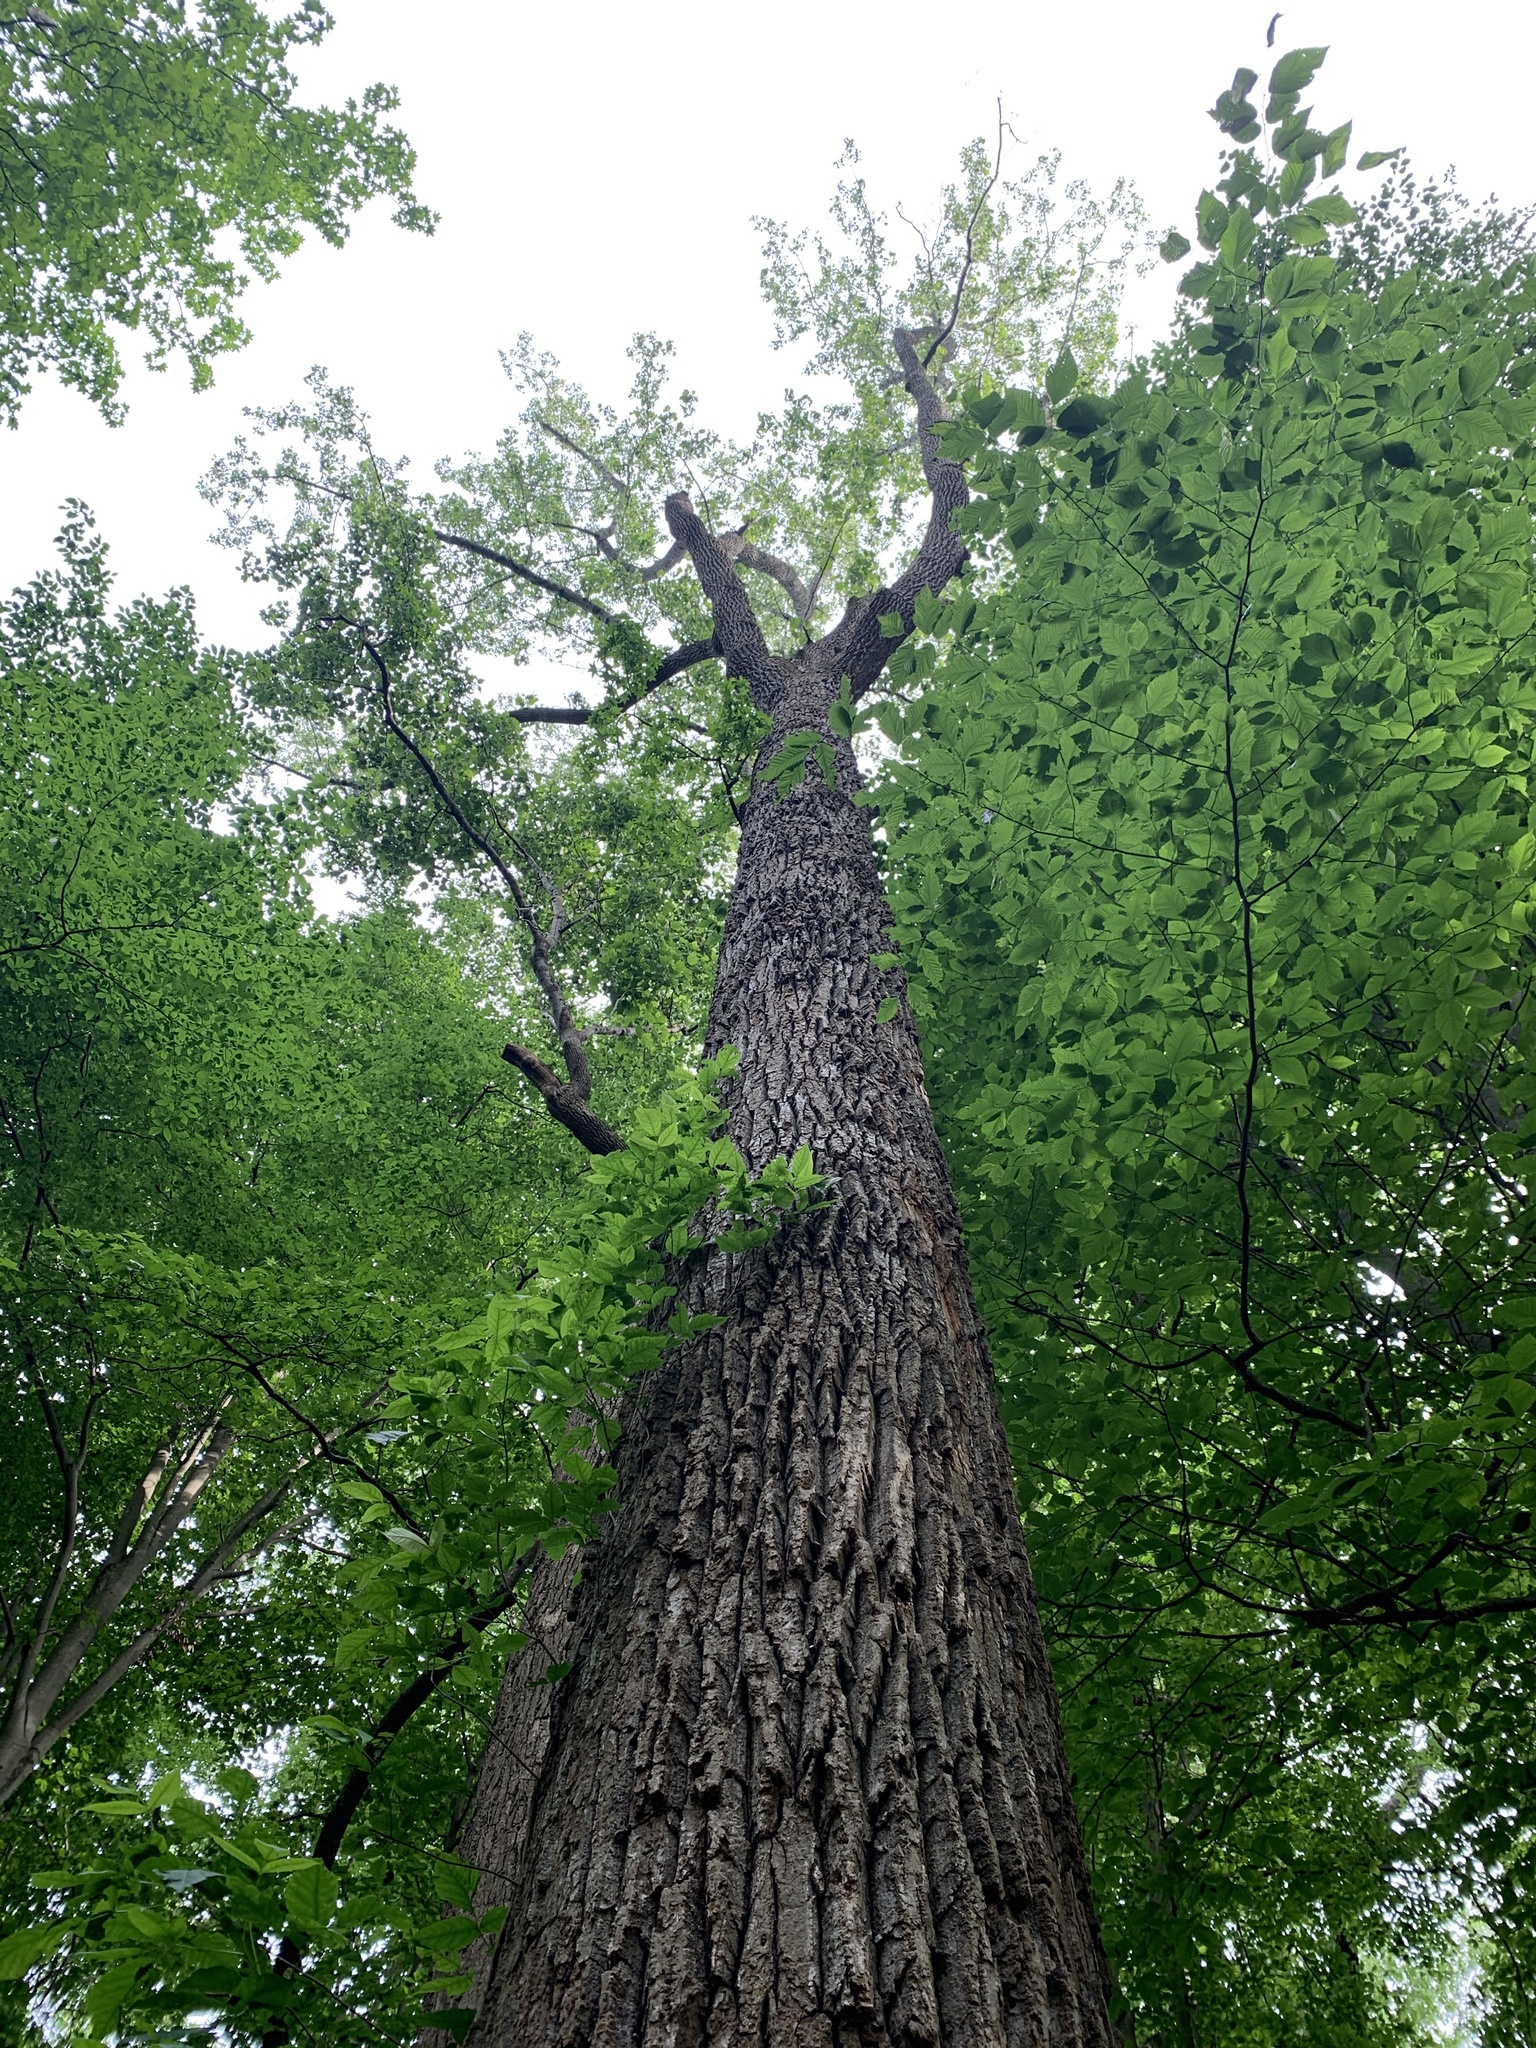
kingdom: Plantae
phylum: Tracheophyta
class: Magnoliopsida
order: Magnoliales
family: Magnoliaceae
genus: Liriodendron
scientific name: Liriodendron tulipifera
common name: Tulip tree
